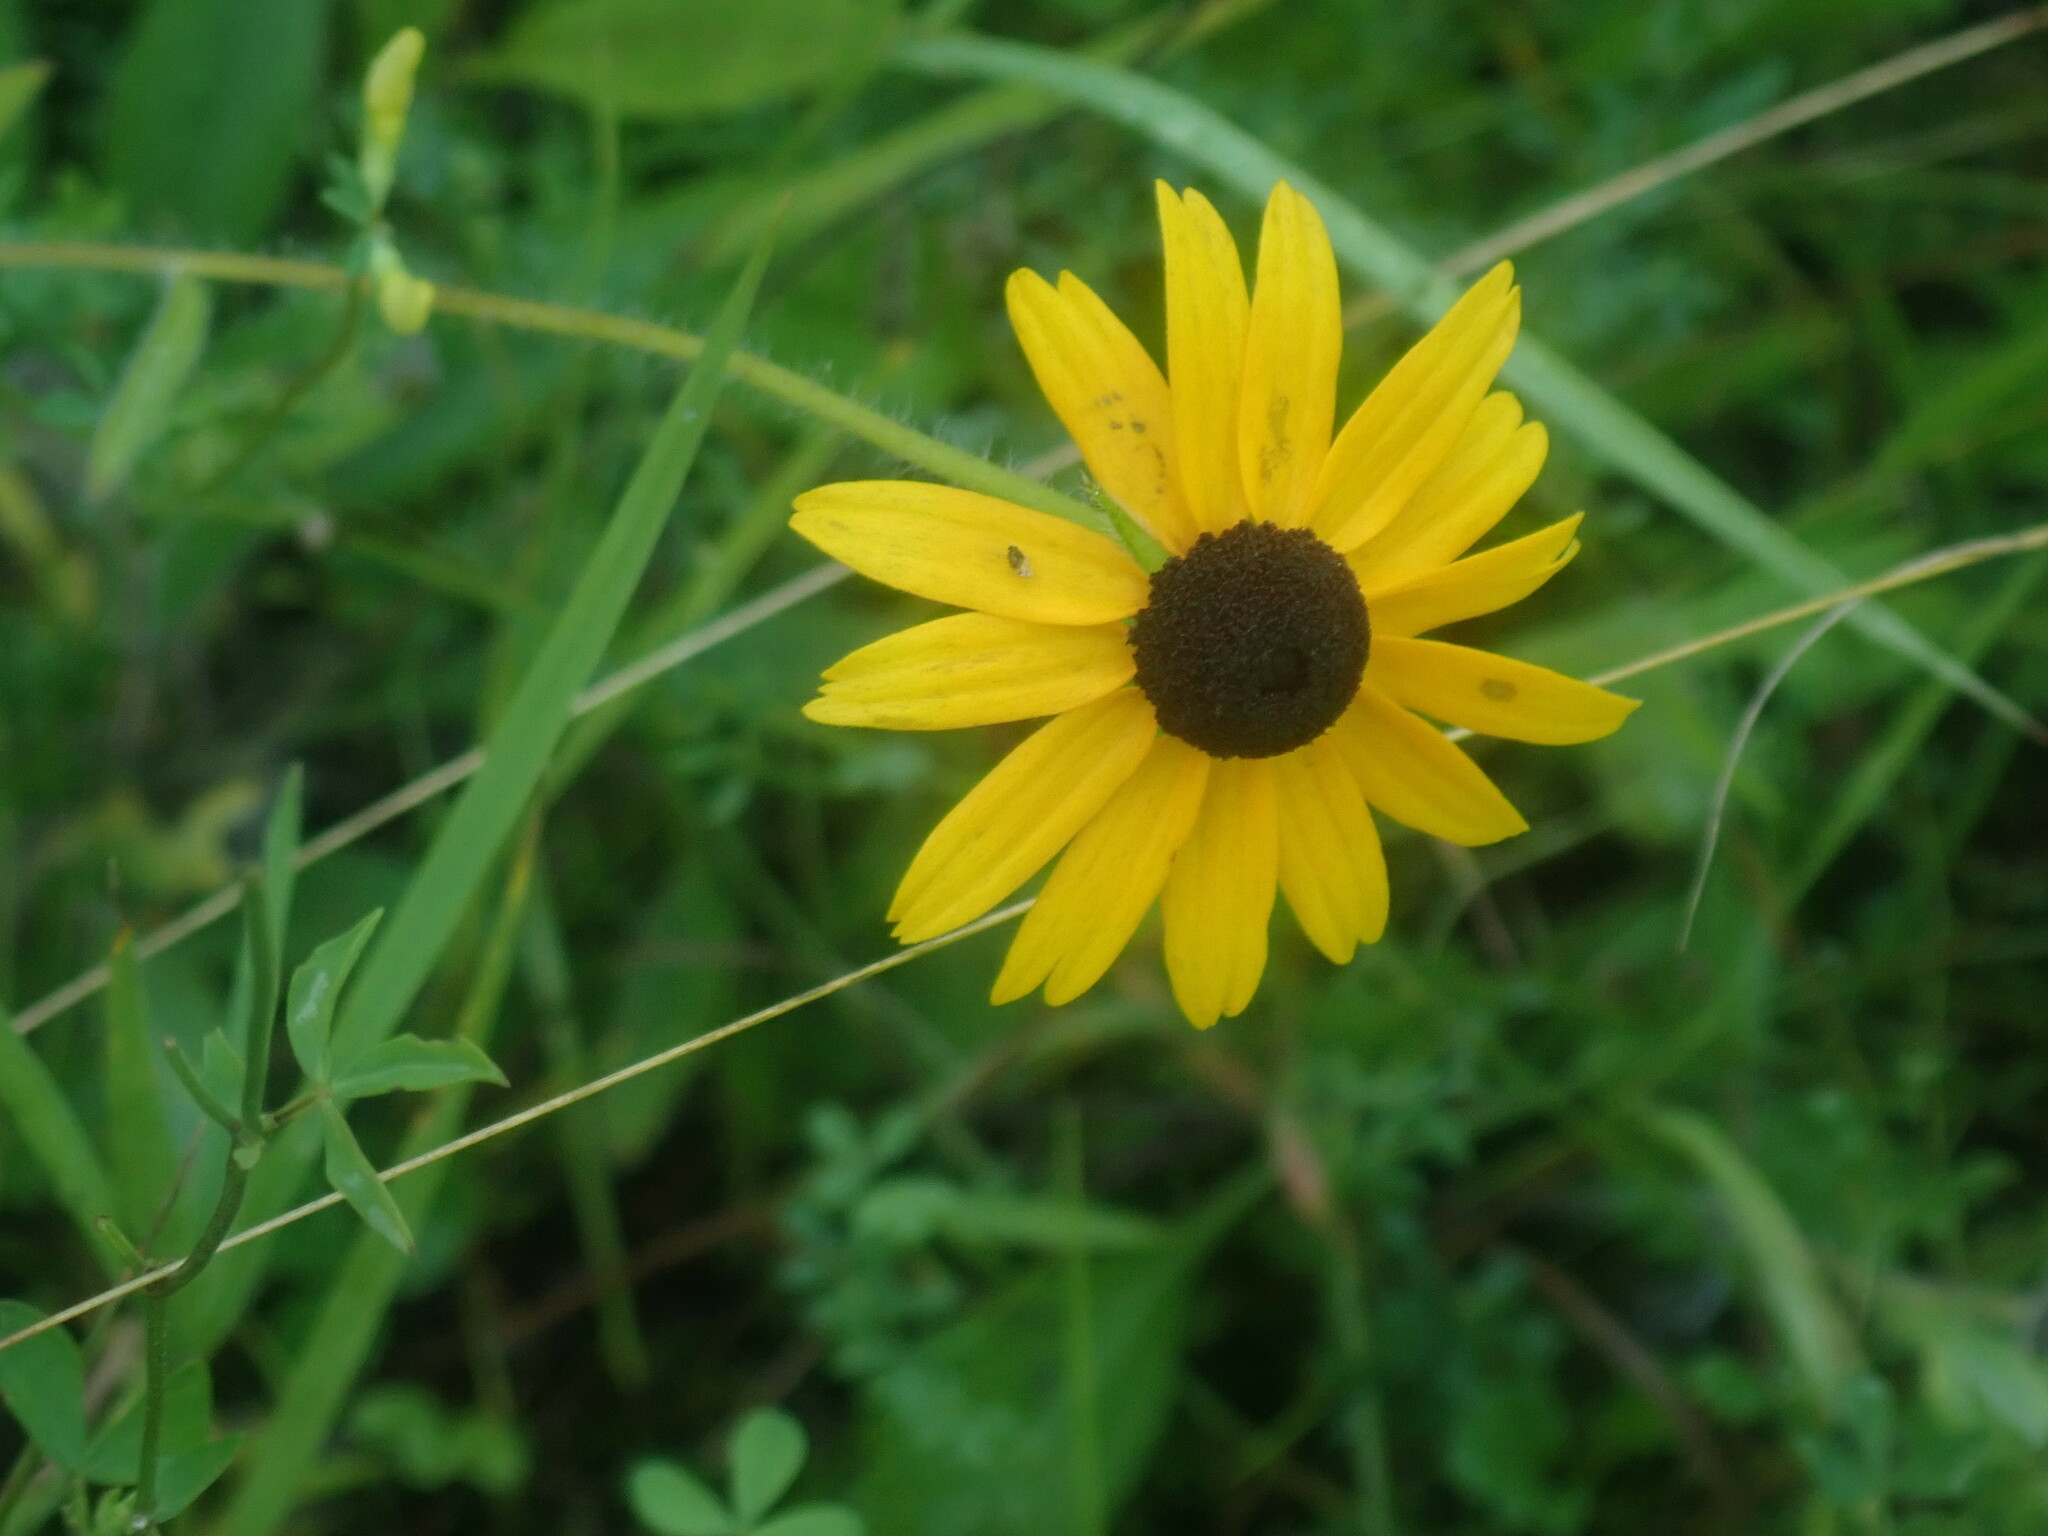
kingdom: Plantae
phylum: Tracheophyta
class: Magnoliopsida
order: Asterales
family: Asteraceae
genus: Rudbeckia
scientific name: Rudbeckia hirta
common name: Black-eyed-susan
